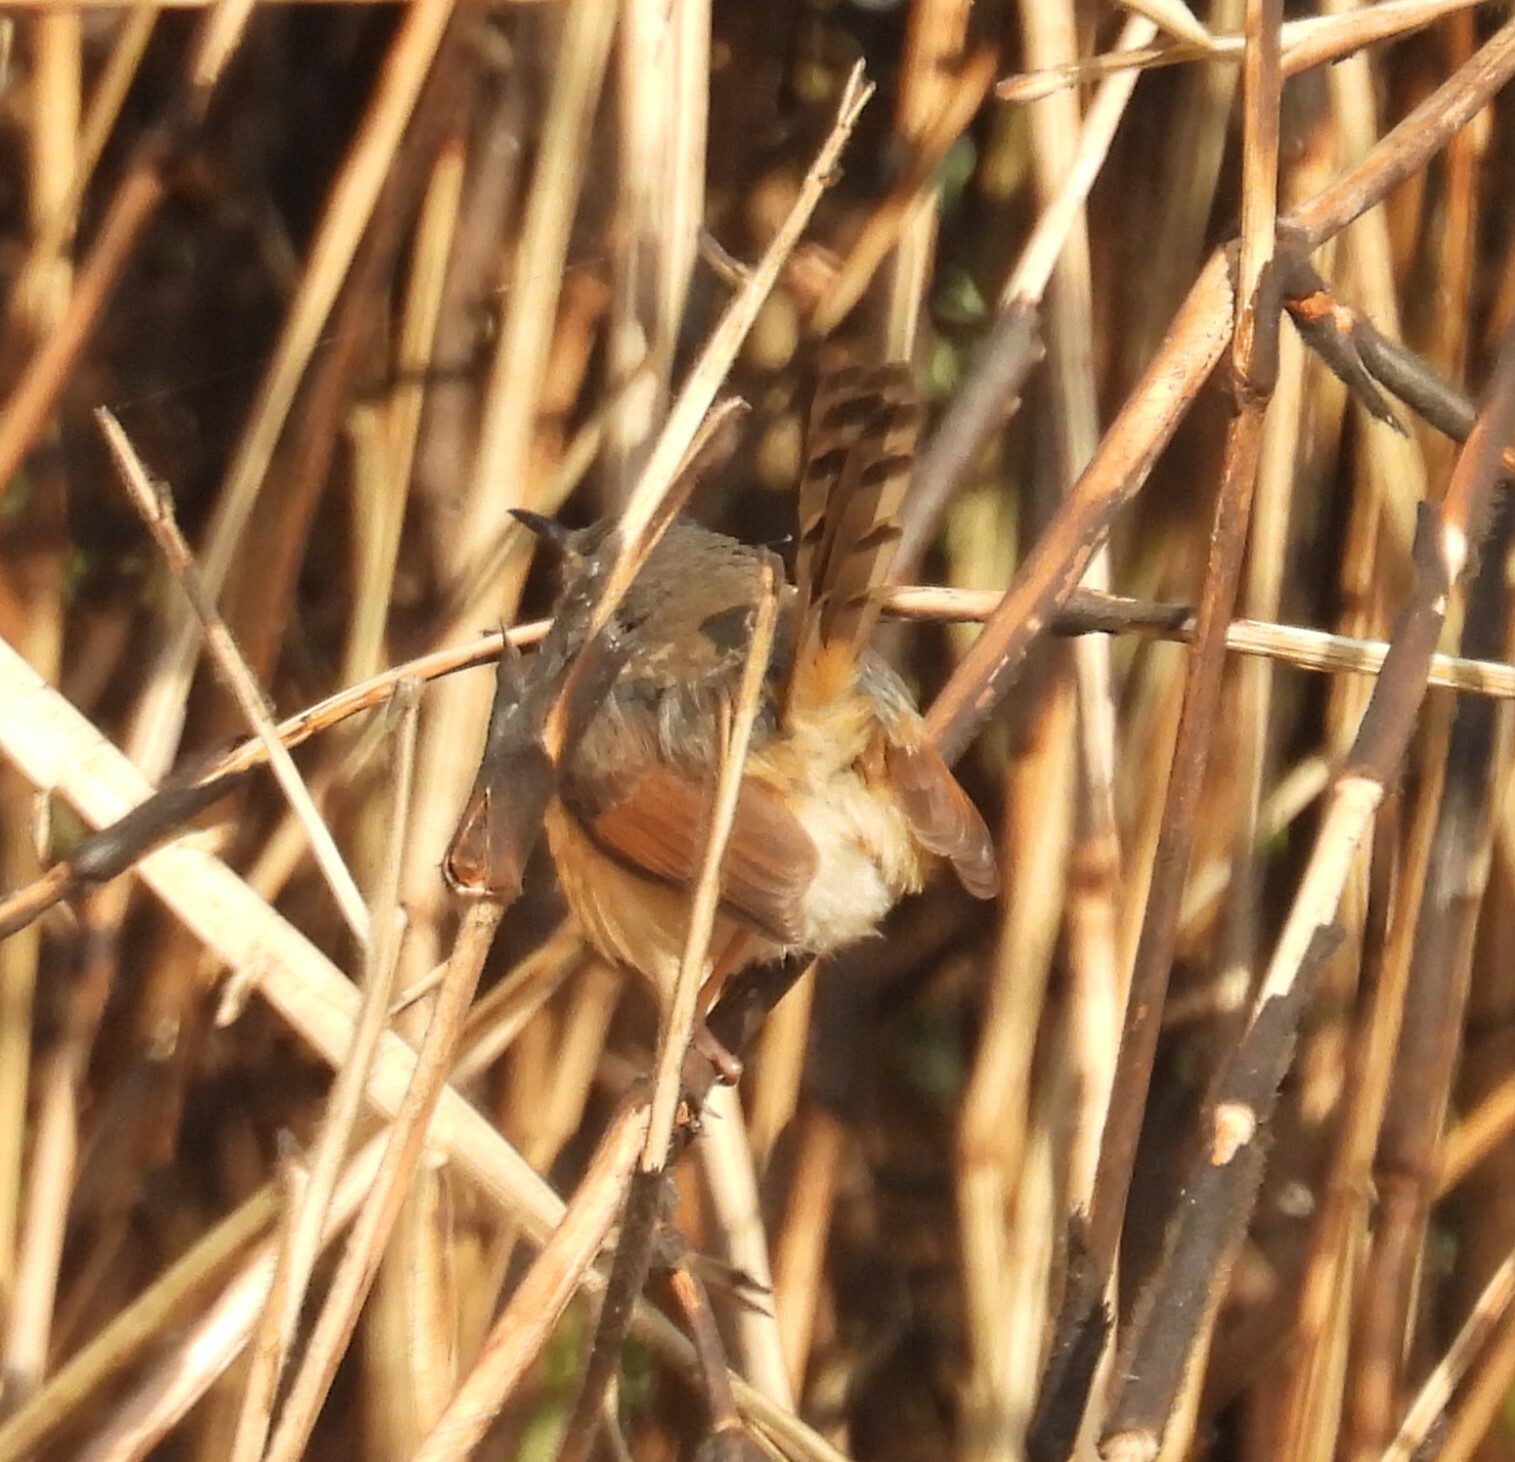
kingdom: Animalia
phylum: Chordata
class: Aves
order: Passeriformes
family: Cisticolidae
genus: Prinia
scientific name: Prinia socialis
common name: Ashy prinia
